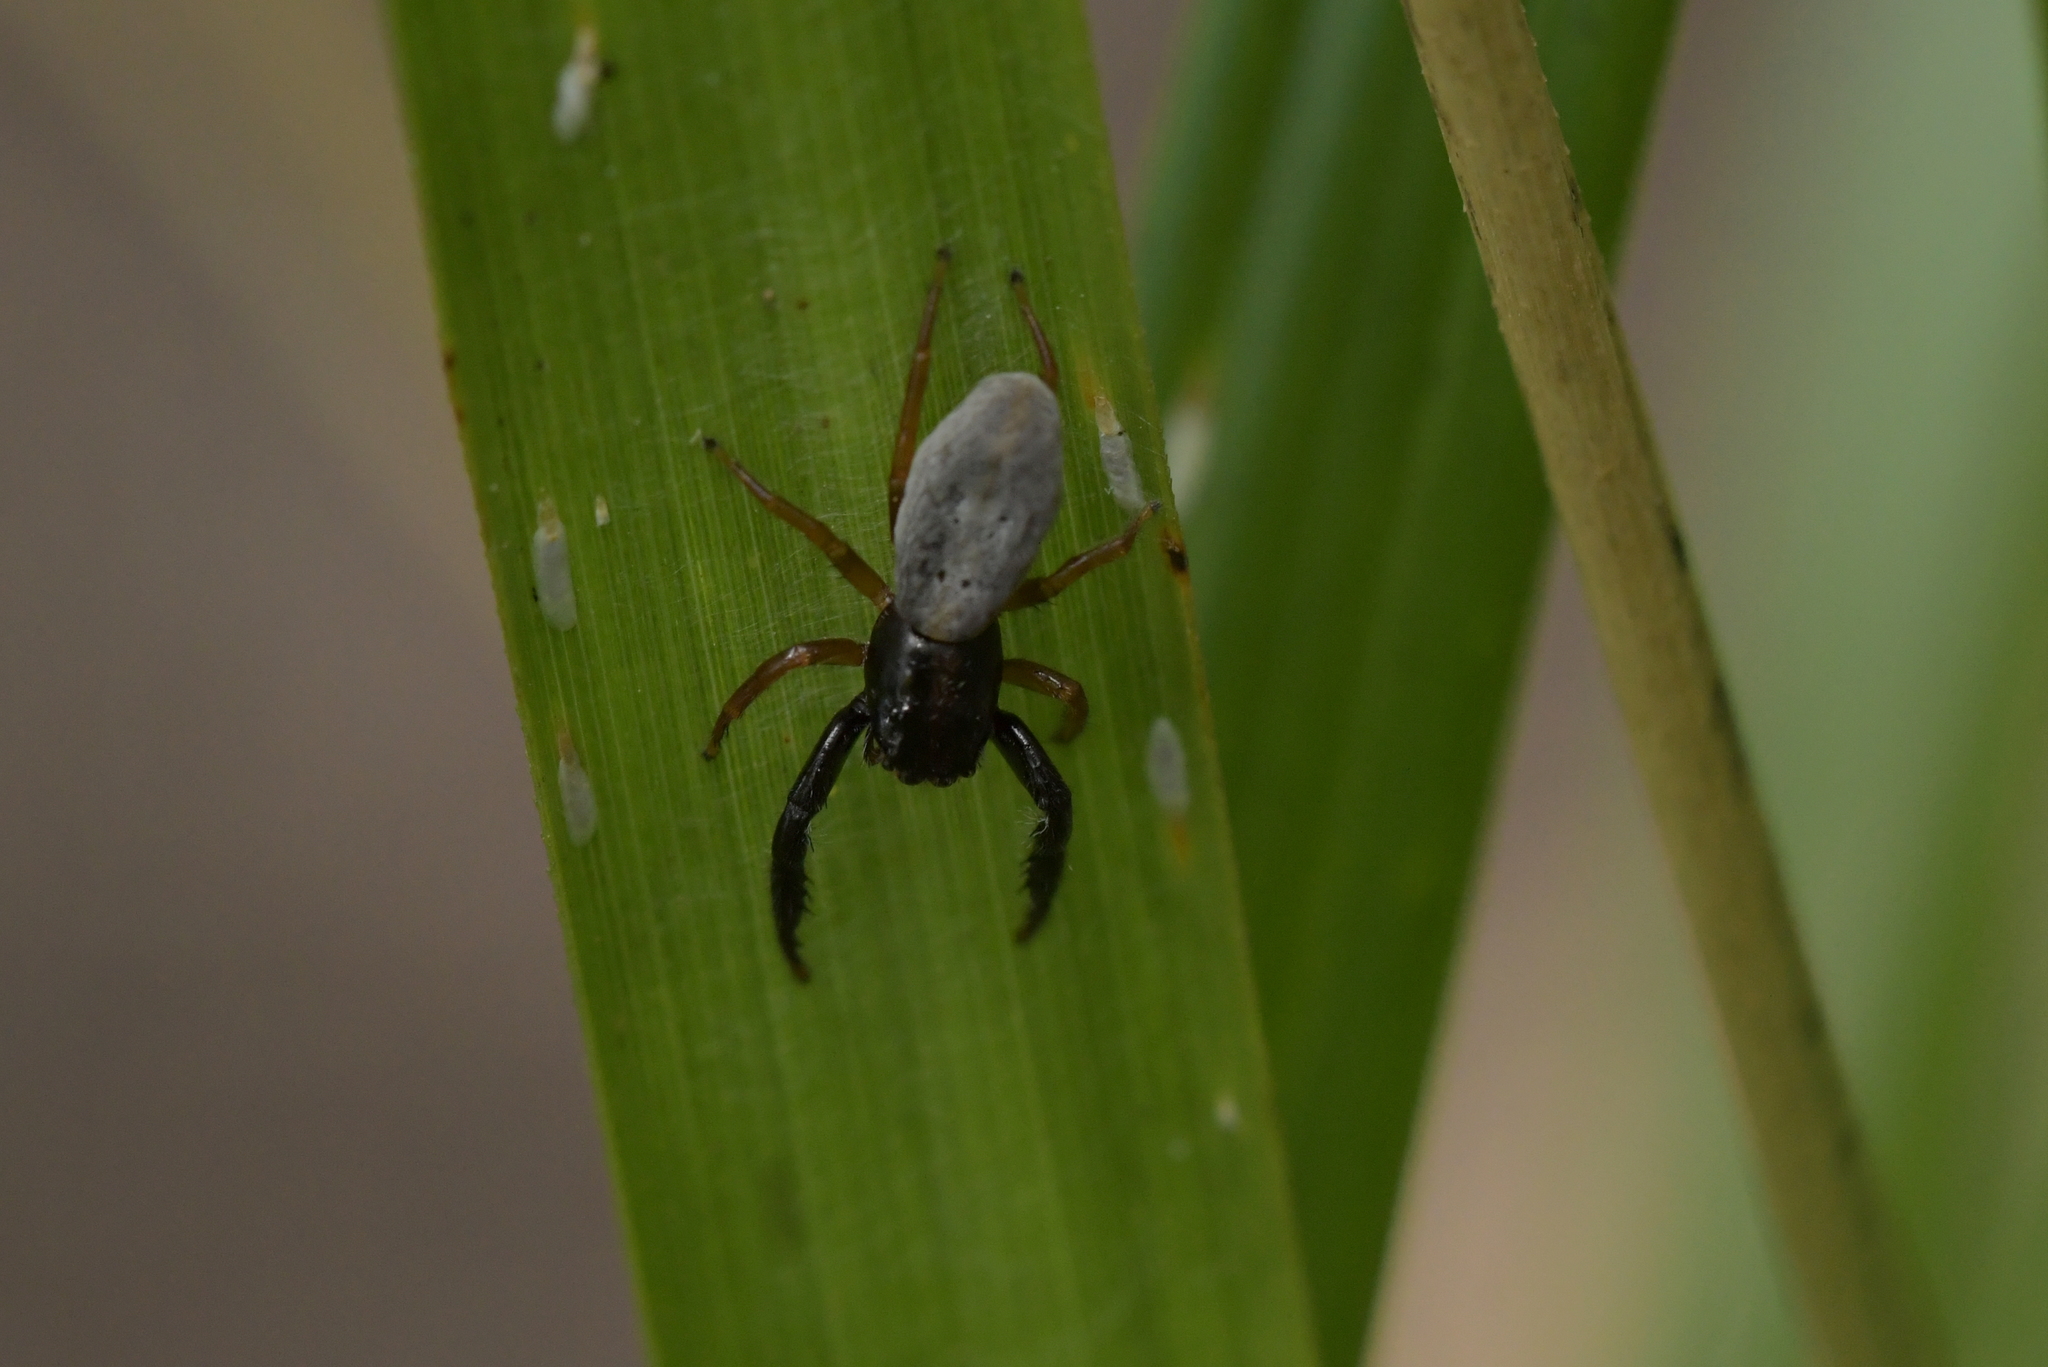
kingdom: Animalia
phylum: Arthropoda
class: Arachnida
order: Araneae
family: Salticidae
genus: Trite
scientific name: Trite planiceps
